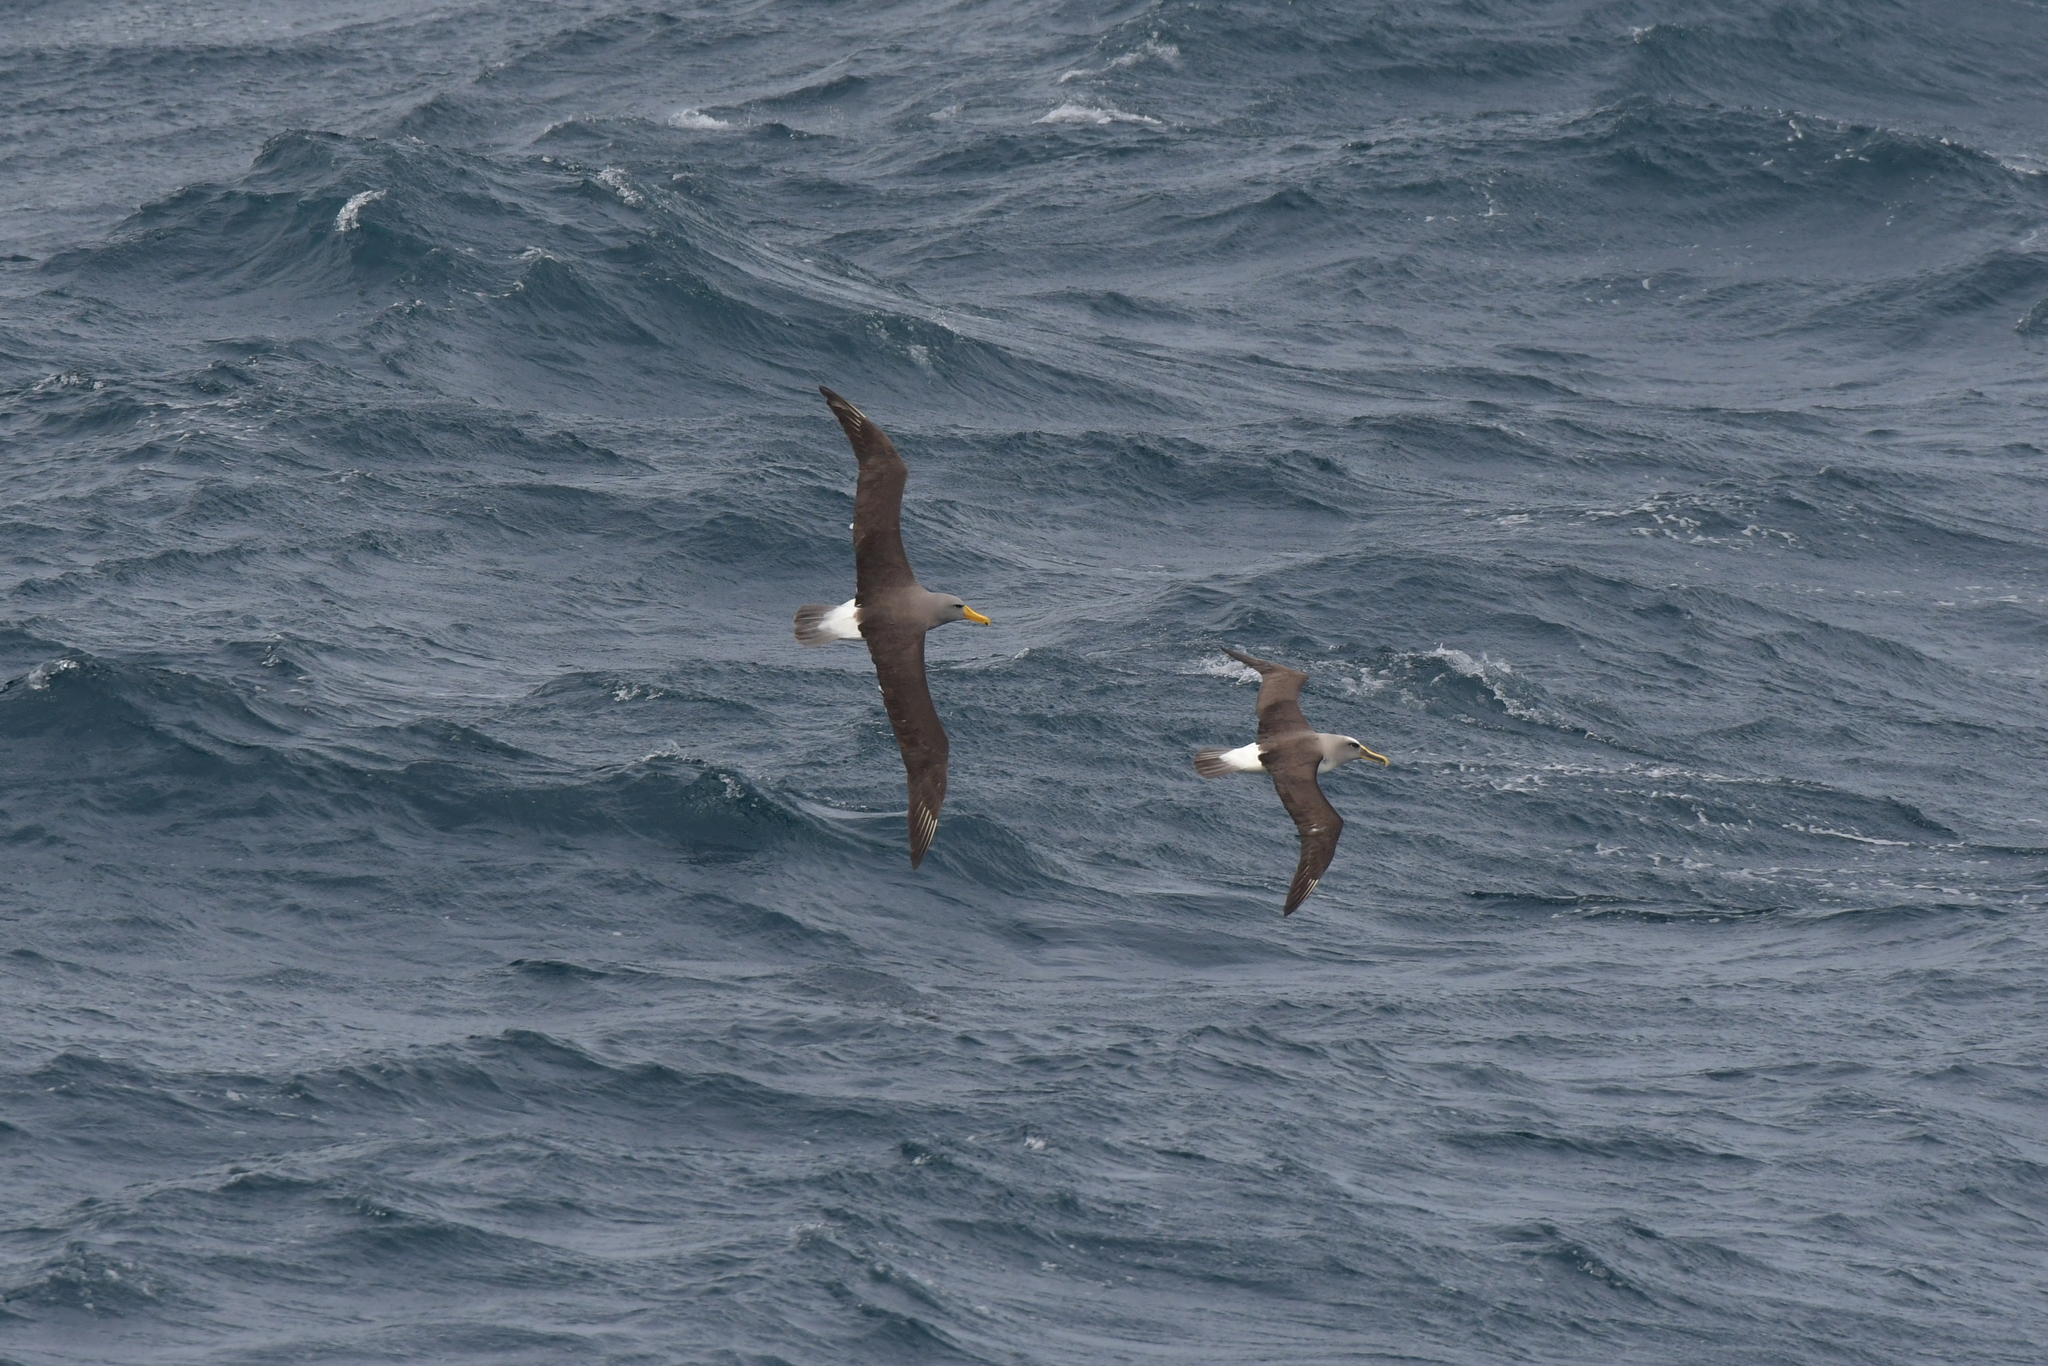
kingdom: Animalia
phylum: Chordata
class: Aves
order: Procellariiformes
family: Diomedeidae
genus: Thalassarche
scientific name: Thalassarche eremita
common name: Chatham albatross
